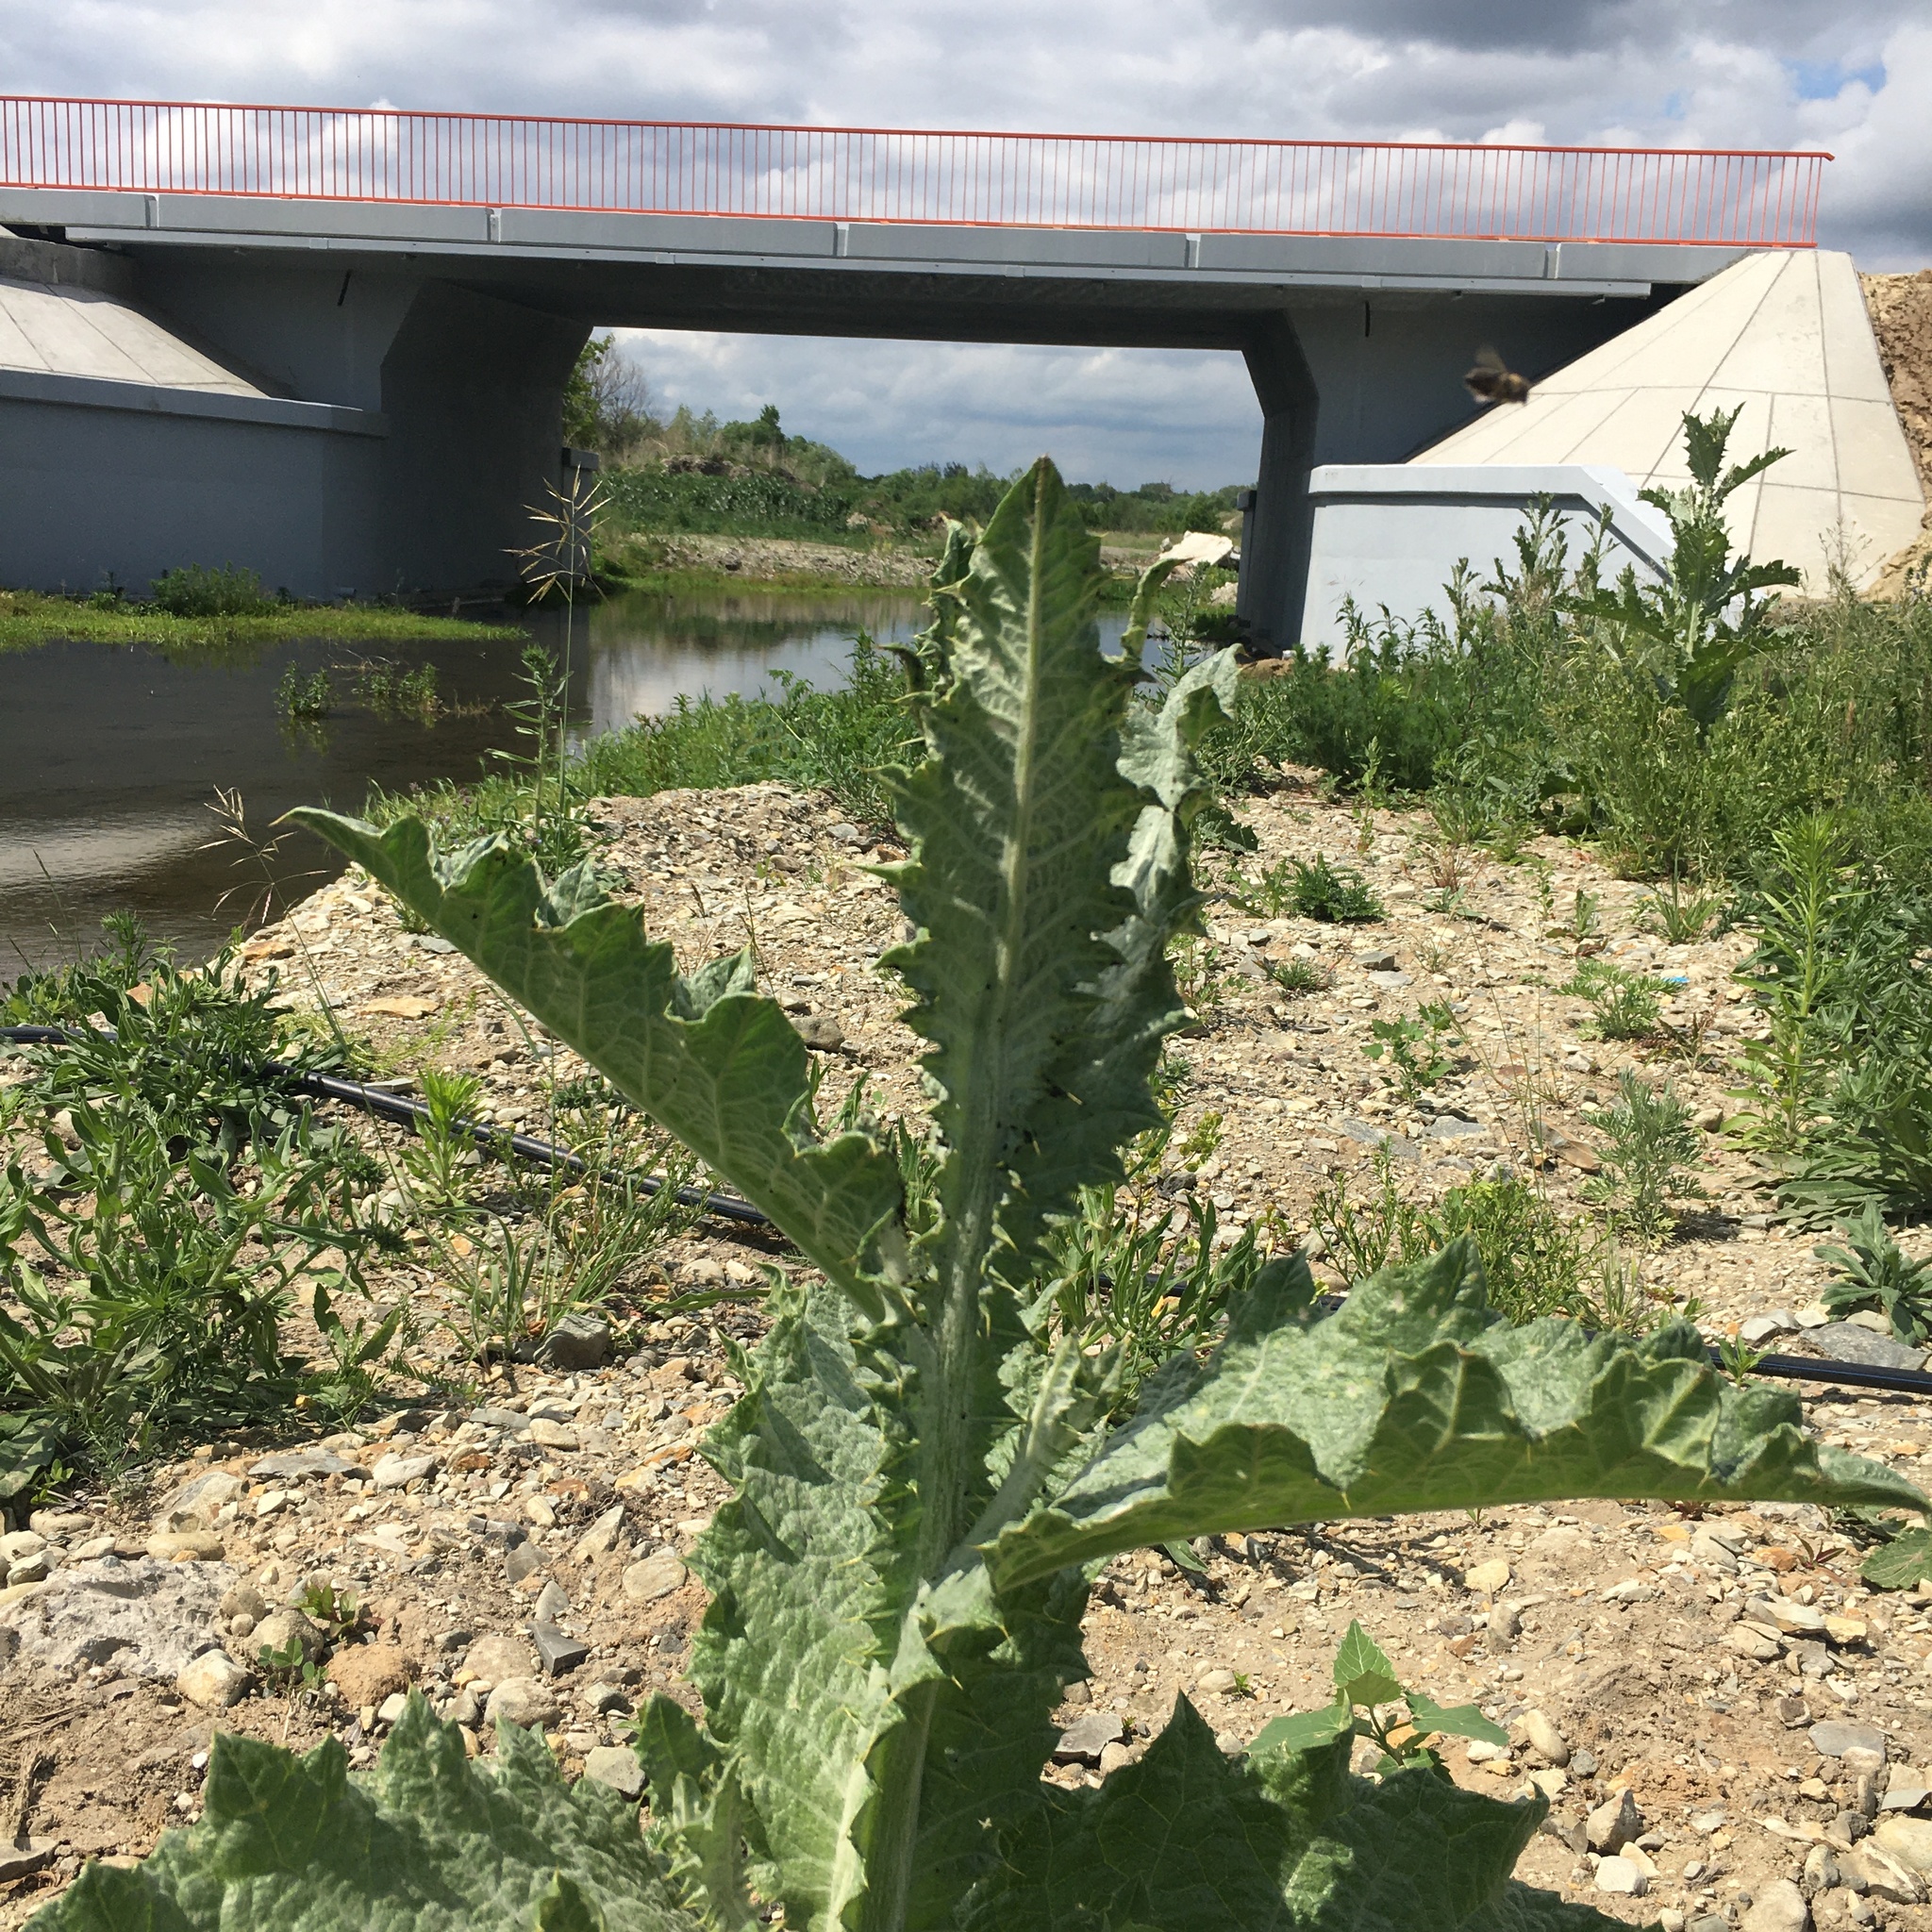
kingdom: Plantae
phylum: Tracheophyta
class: Magnoliopsida
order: Asterales
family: Asteraceae
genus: Onopordum
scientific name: Onopordum acanthium
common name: Scotch thistle
